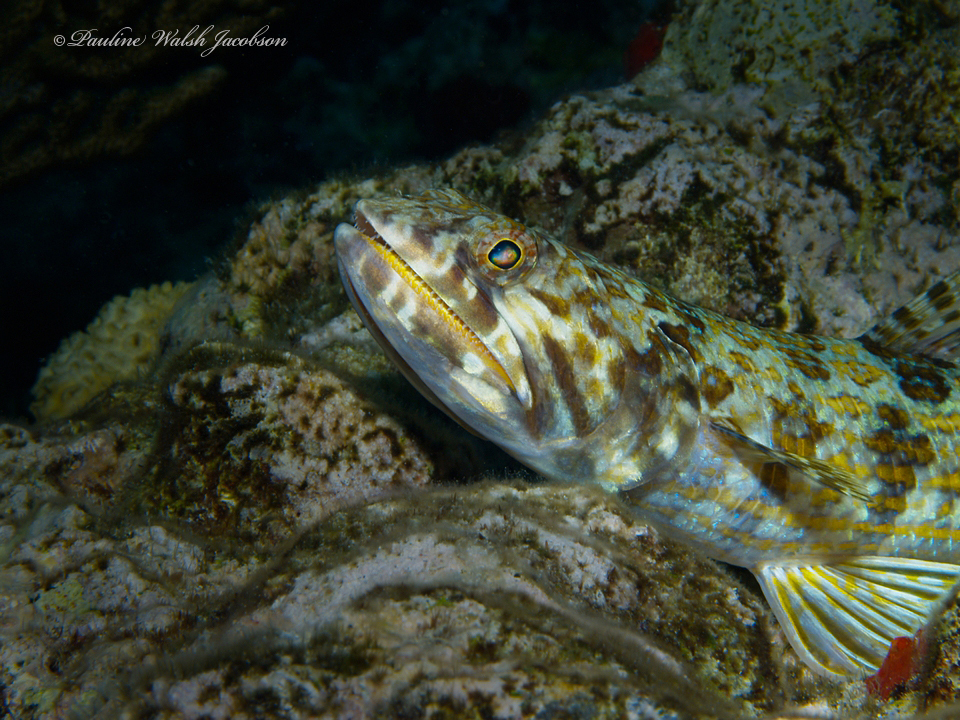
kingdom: Animalia
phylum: Chordata
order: Aulopiformes
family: Synodontidae
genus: Synodus
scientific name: Synodus intermedius
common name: Sand diver
